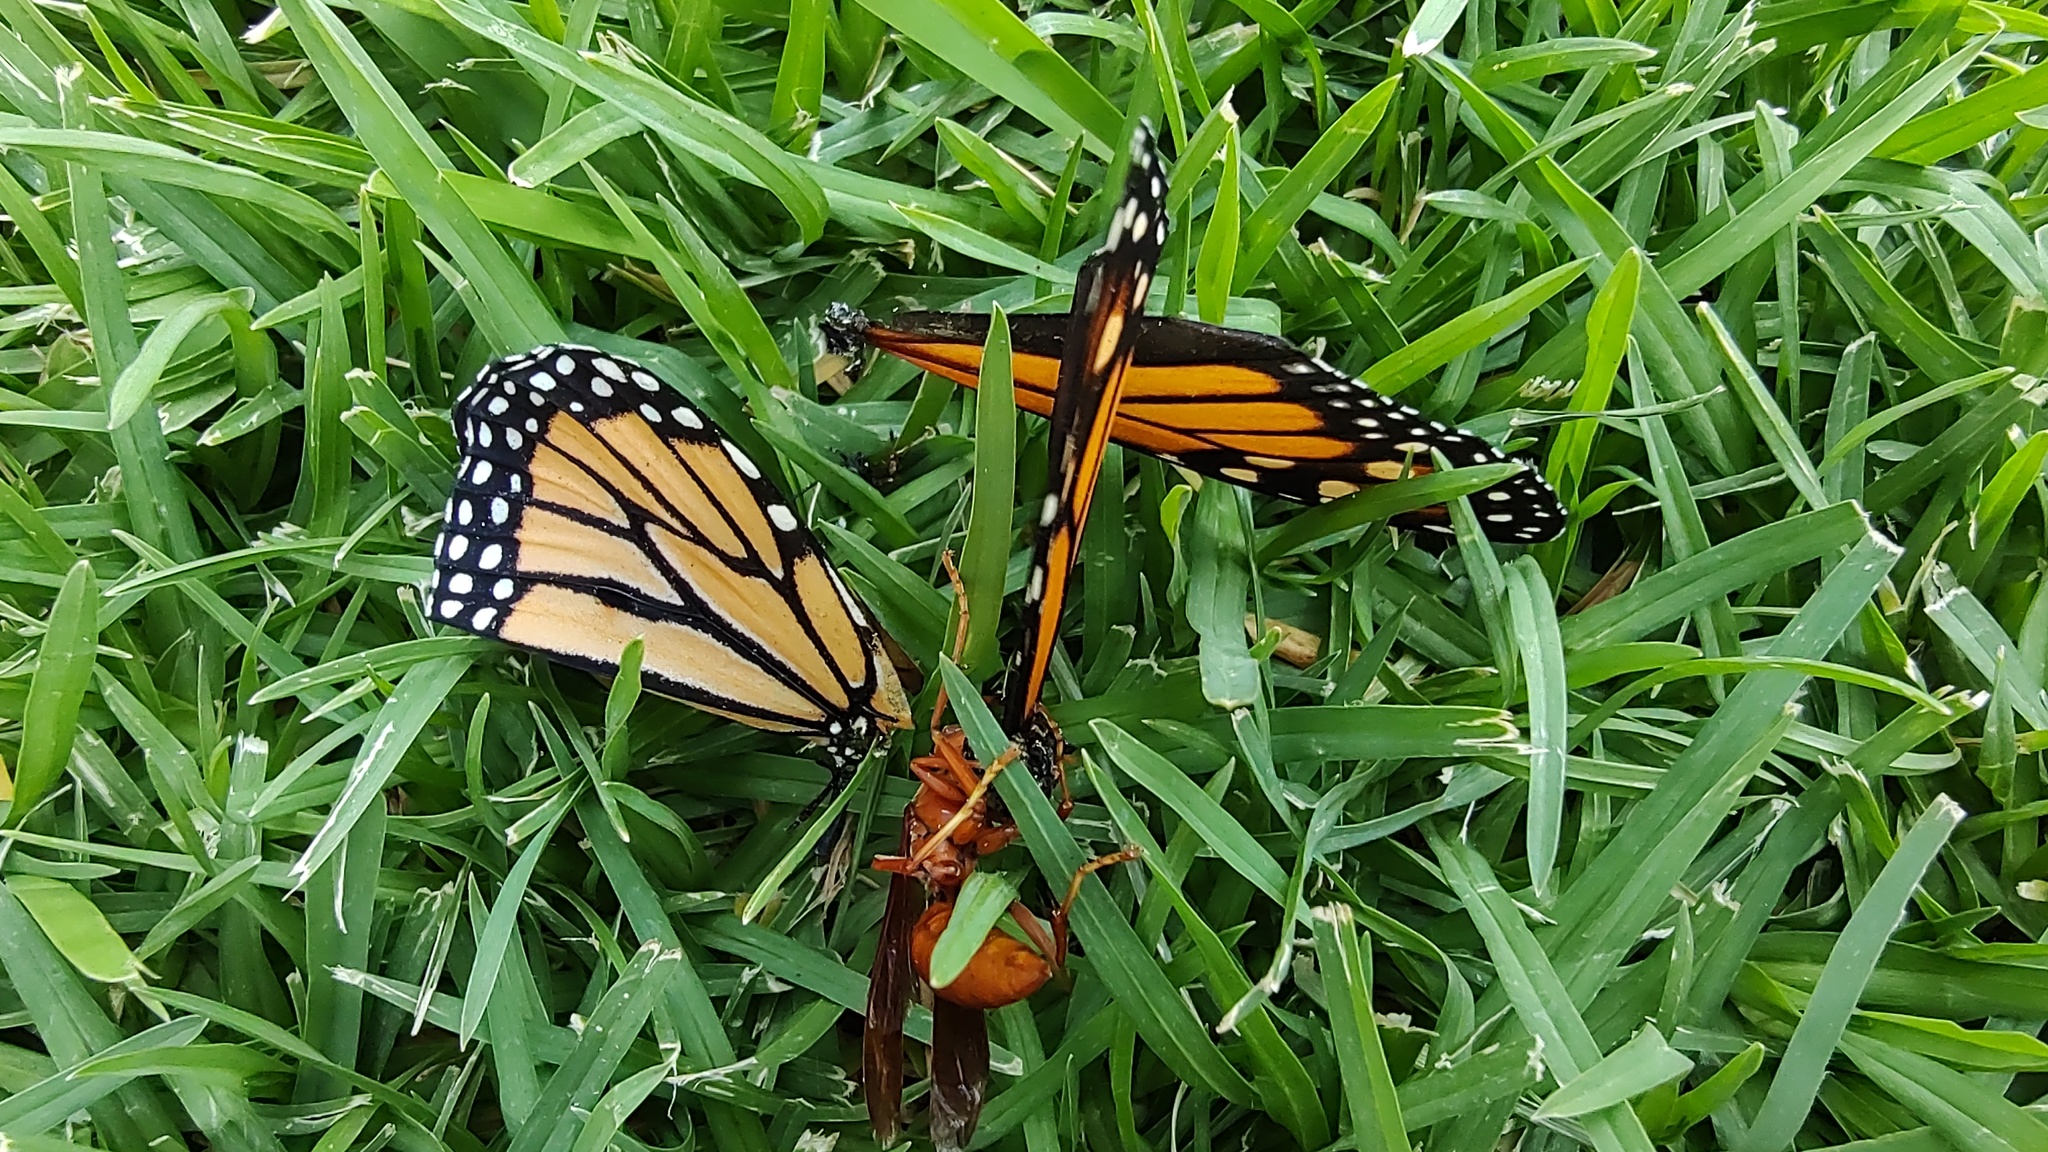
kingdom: Animalia
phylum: Arthropoda
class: Insecta
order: Hymenoptera
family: Eumenidae
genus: Polistes
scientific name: Polistes canadensis
